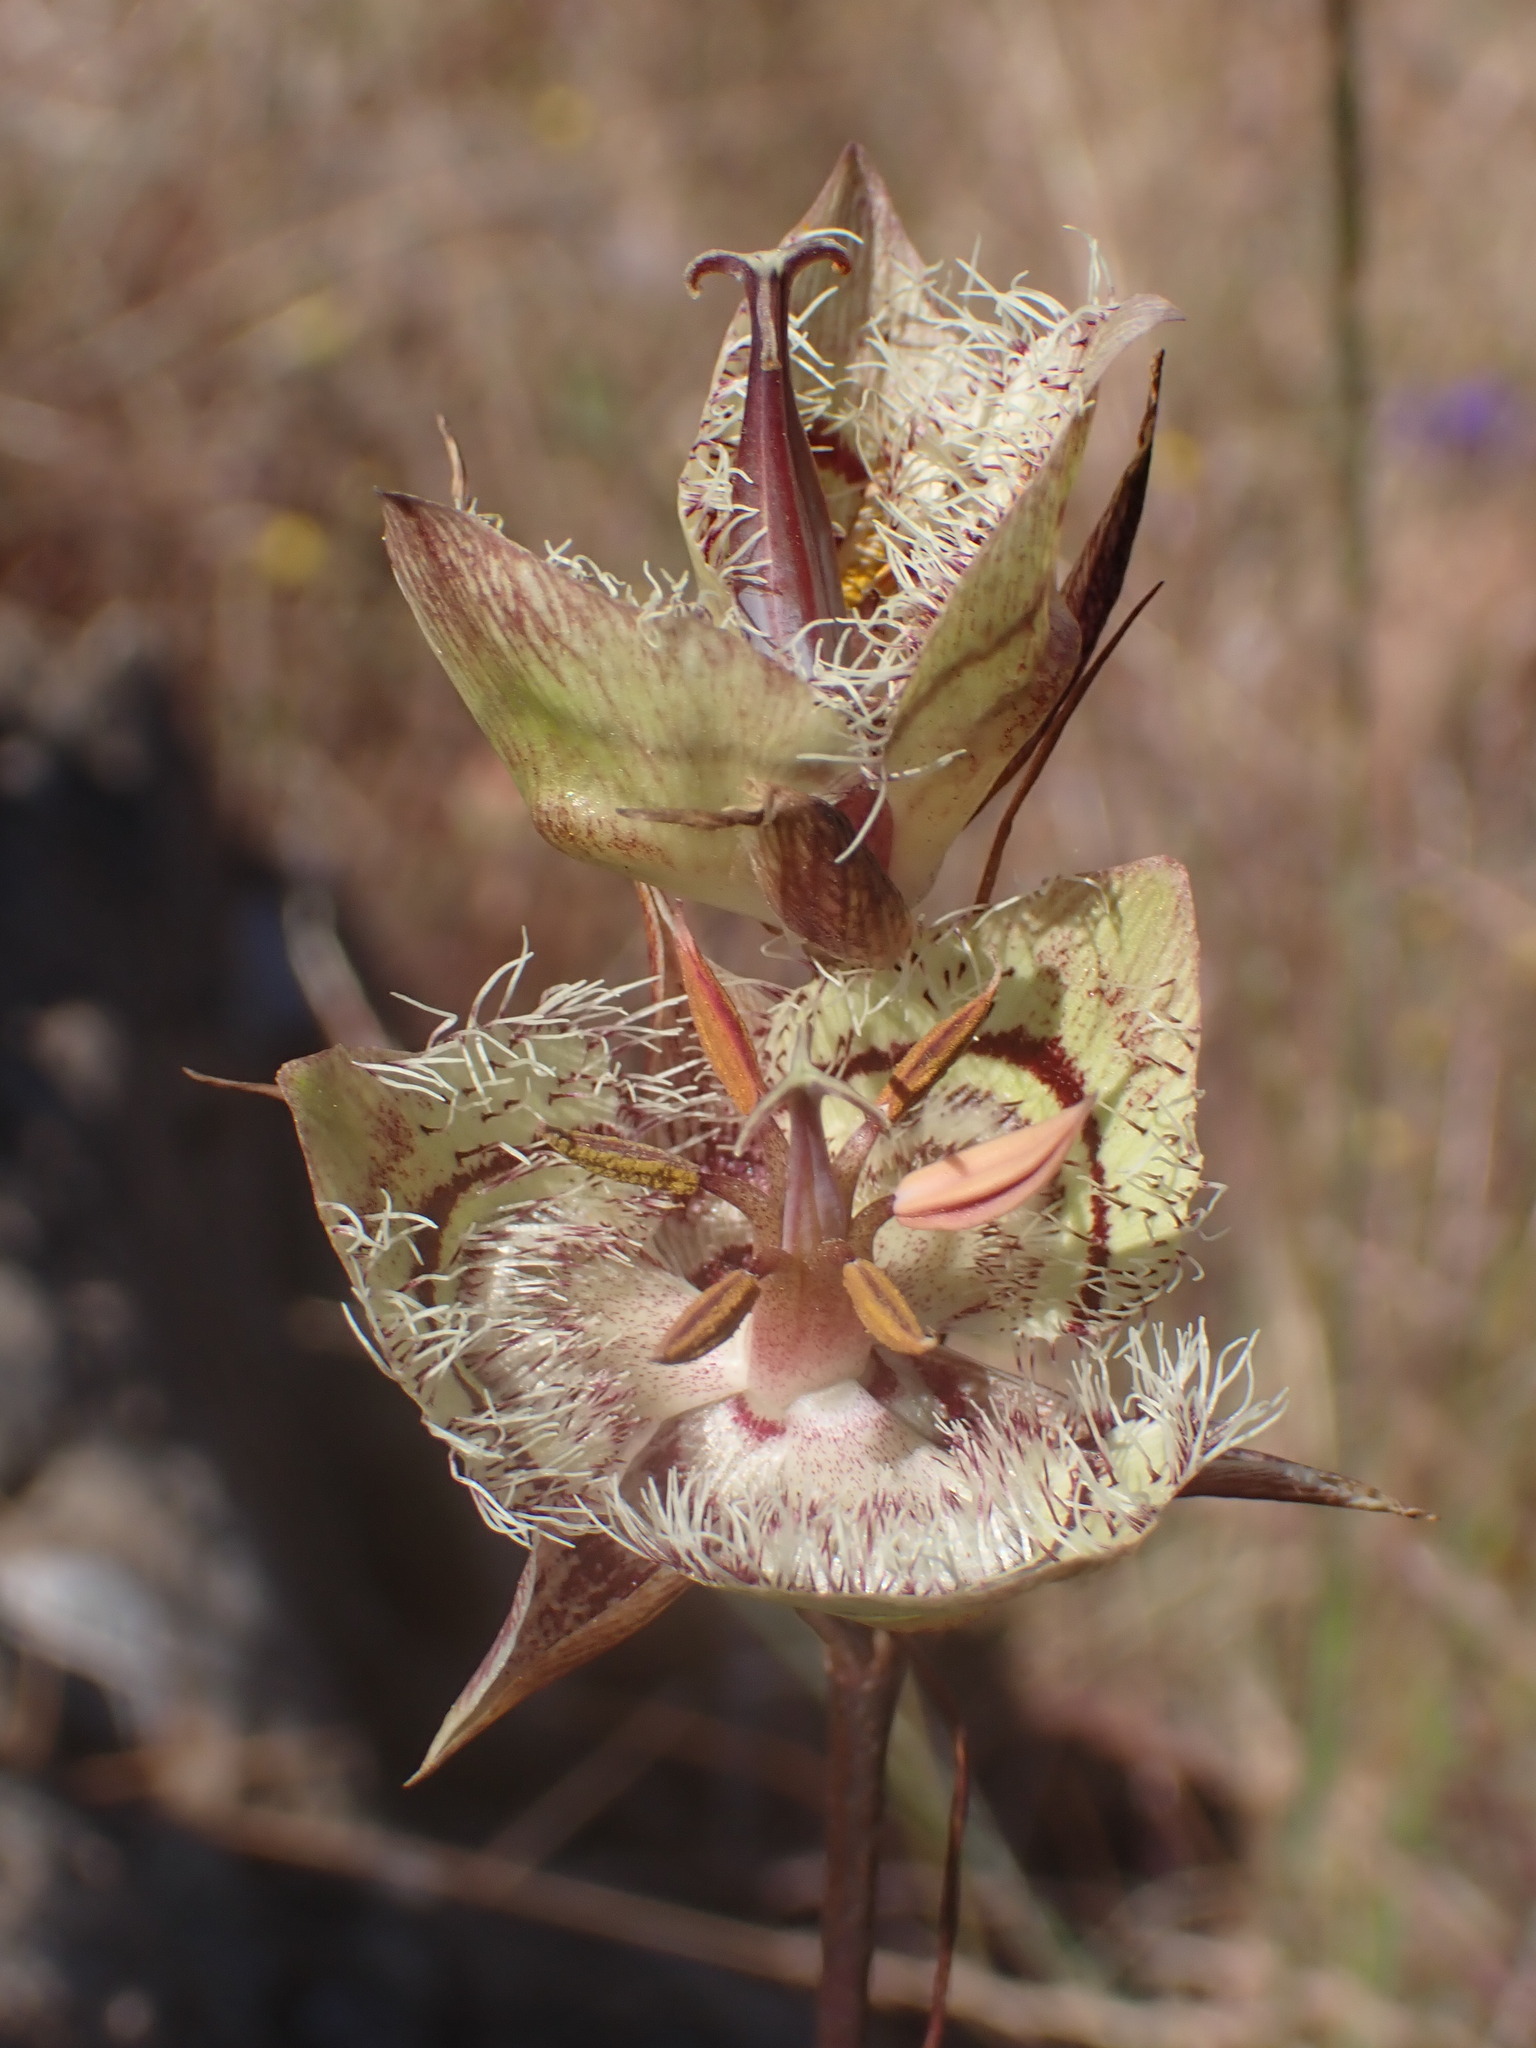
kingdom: Plantae
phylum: Tracheophyta
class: Liliopsida
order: Liliales
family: Liliaceae
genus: Calochortus
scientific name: Calochortus tiburonensis
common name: Tiburon mariposa-lily
